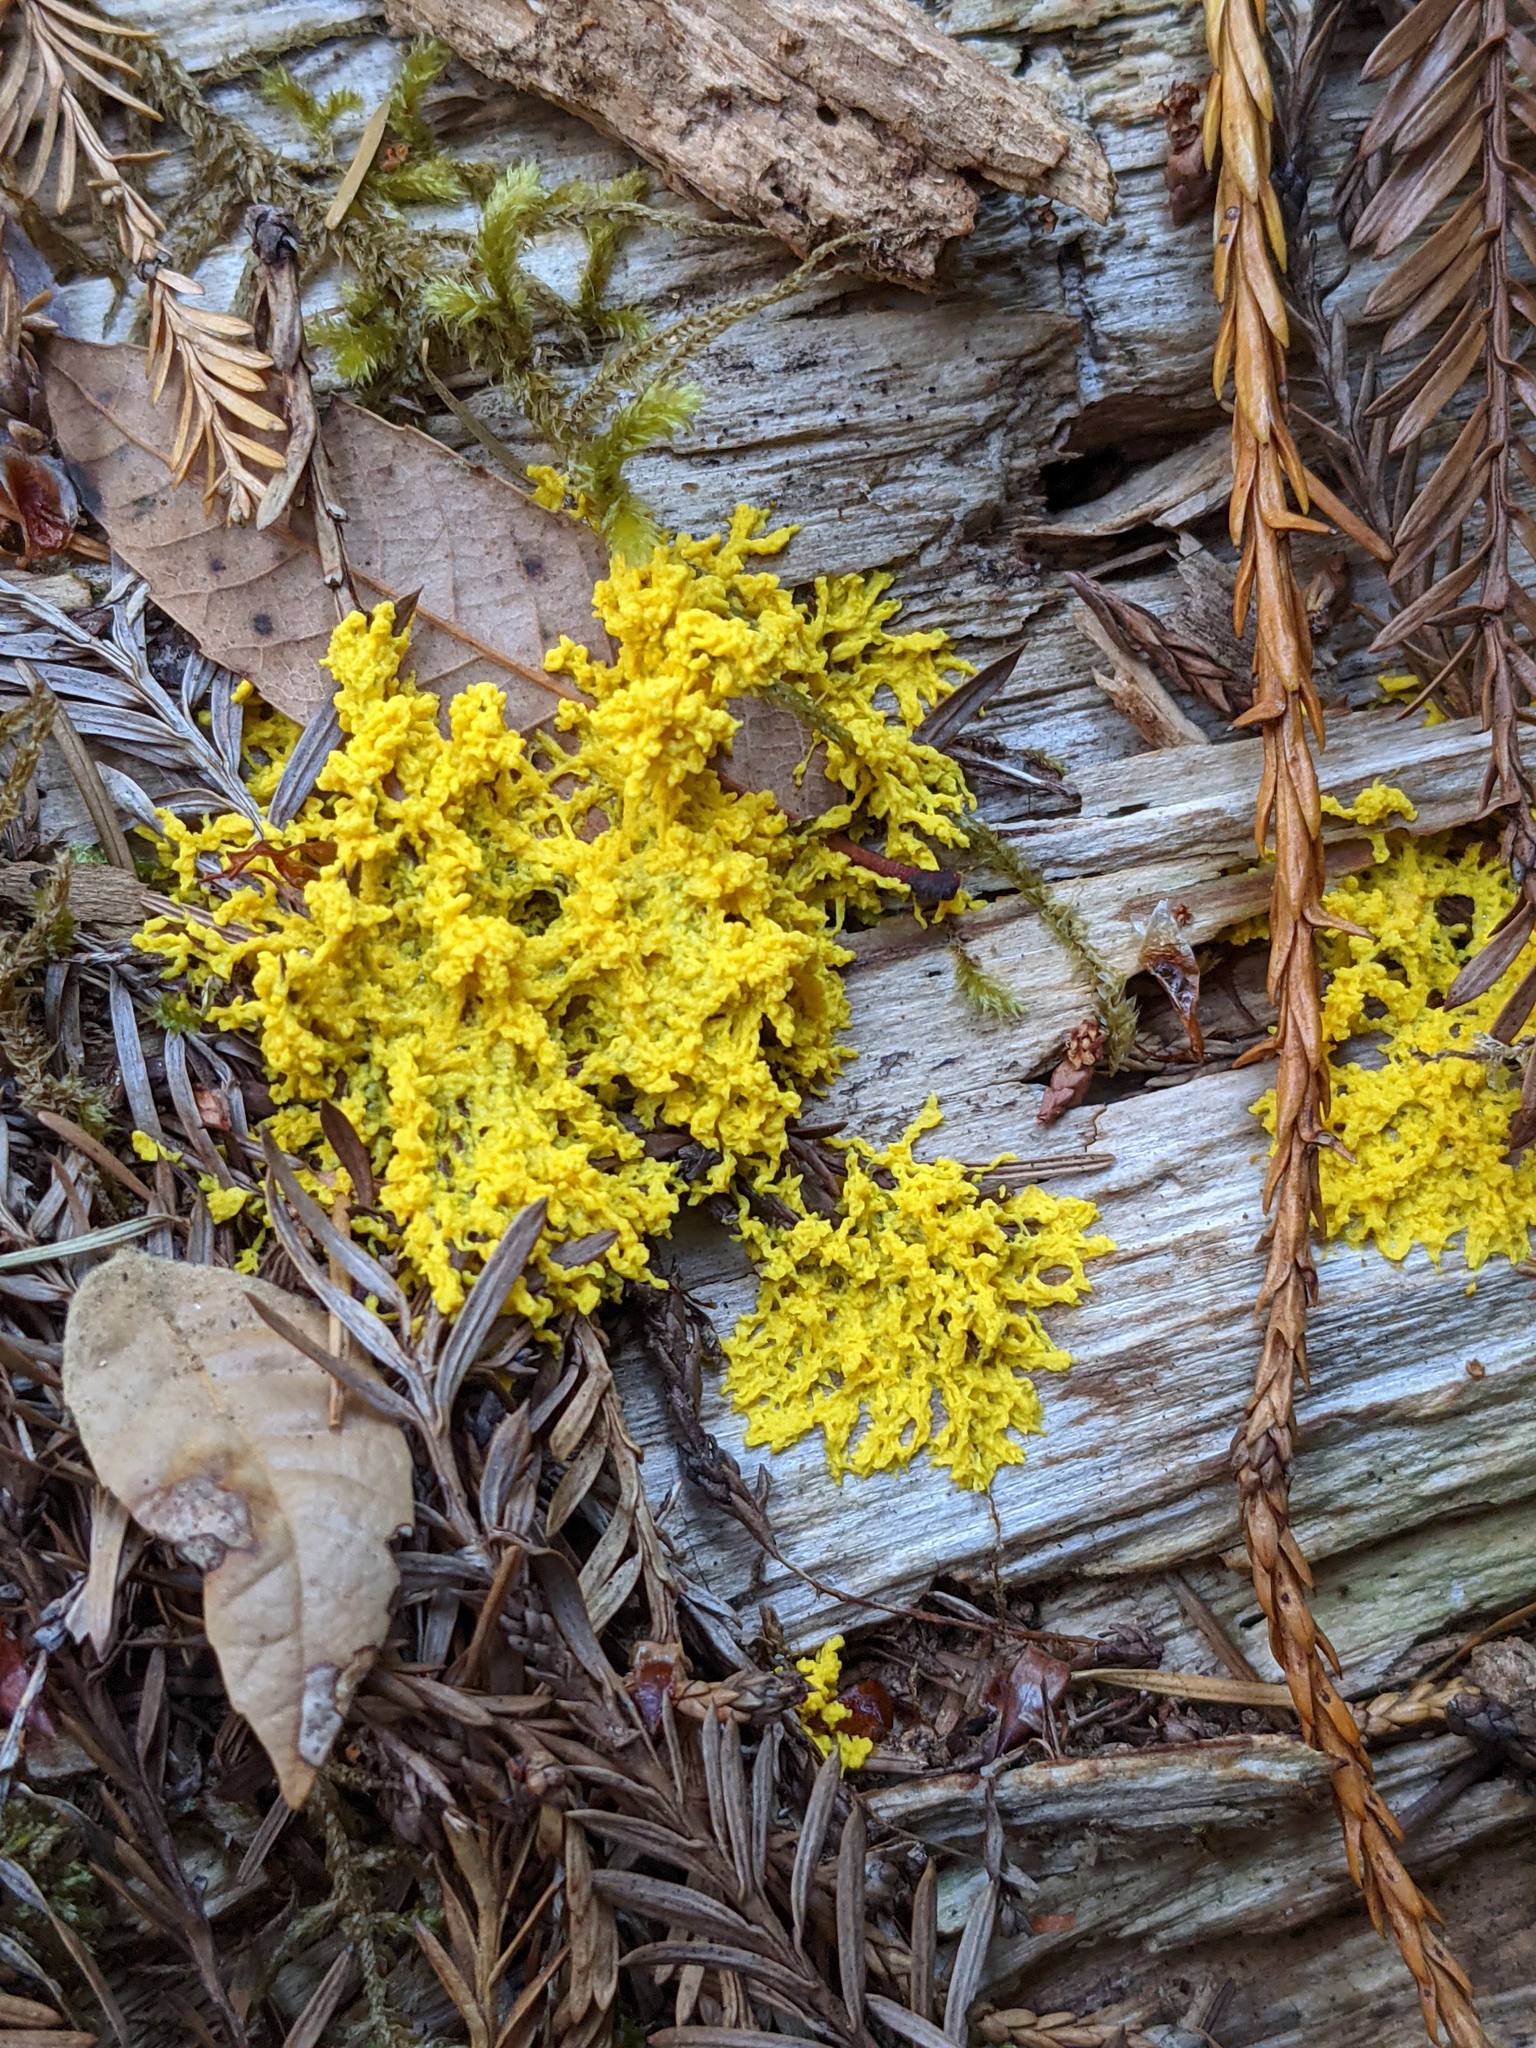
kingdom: Protozoa
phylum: Mycetozoa
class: Myxomycetes
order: Physarales
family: Physaraceae
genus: Fuligo
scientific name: Fuligo septica
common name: Dog vomit slime mold
